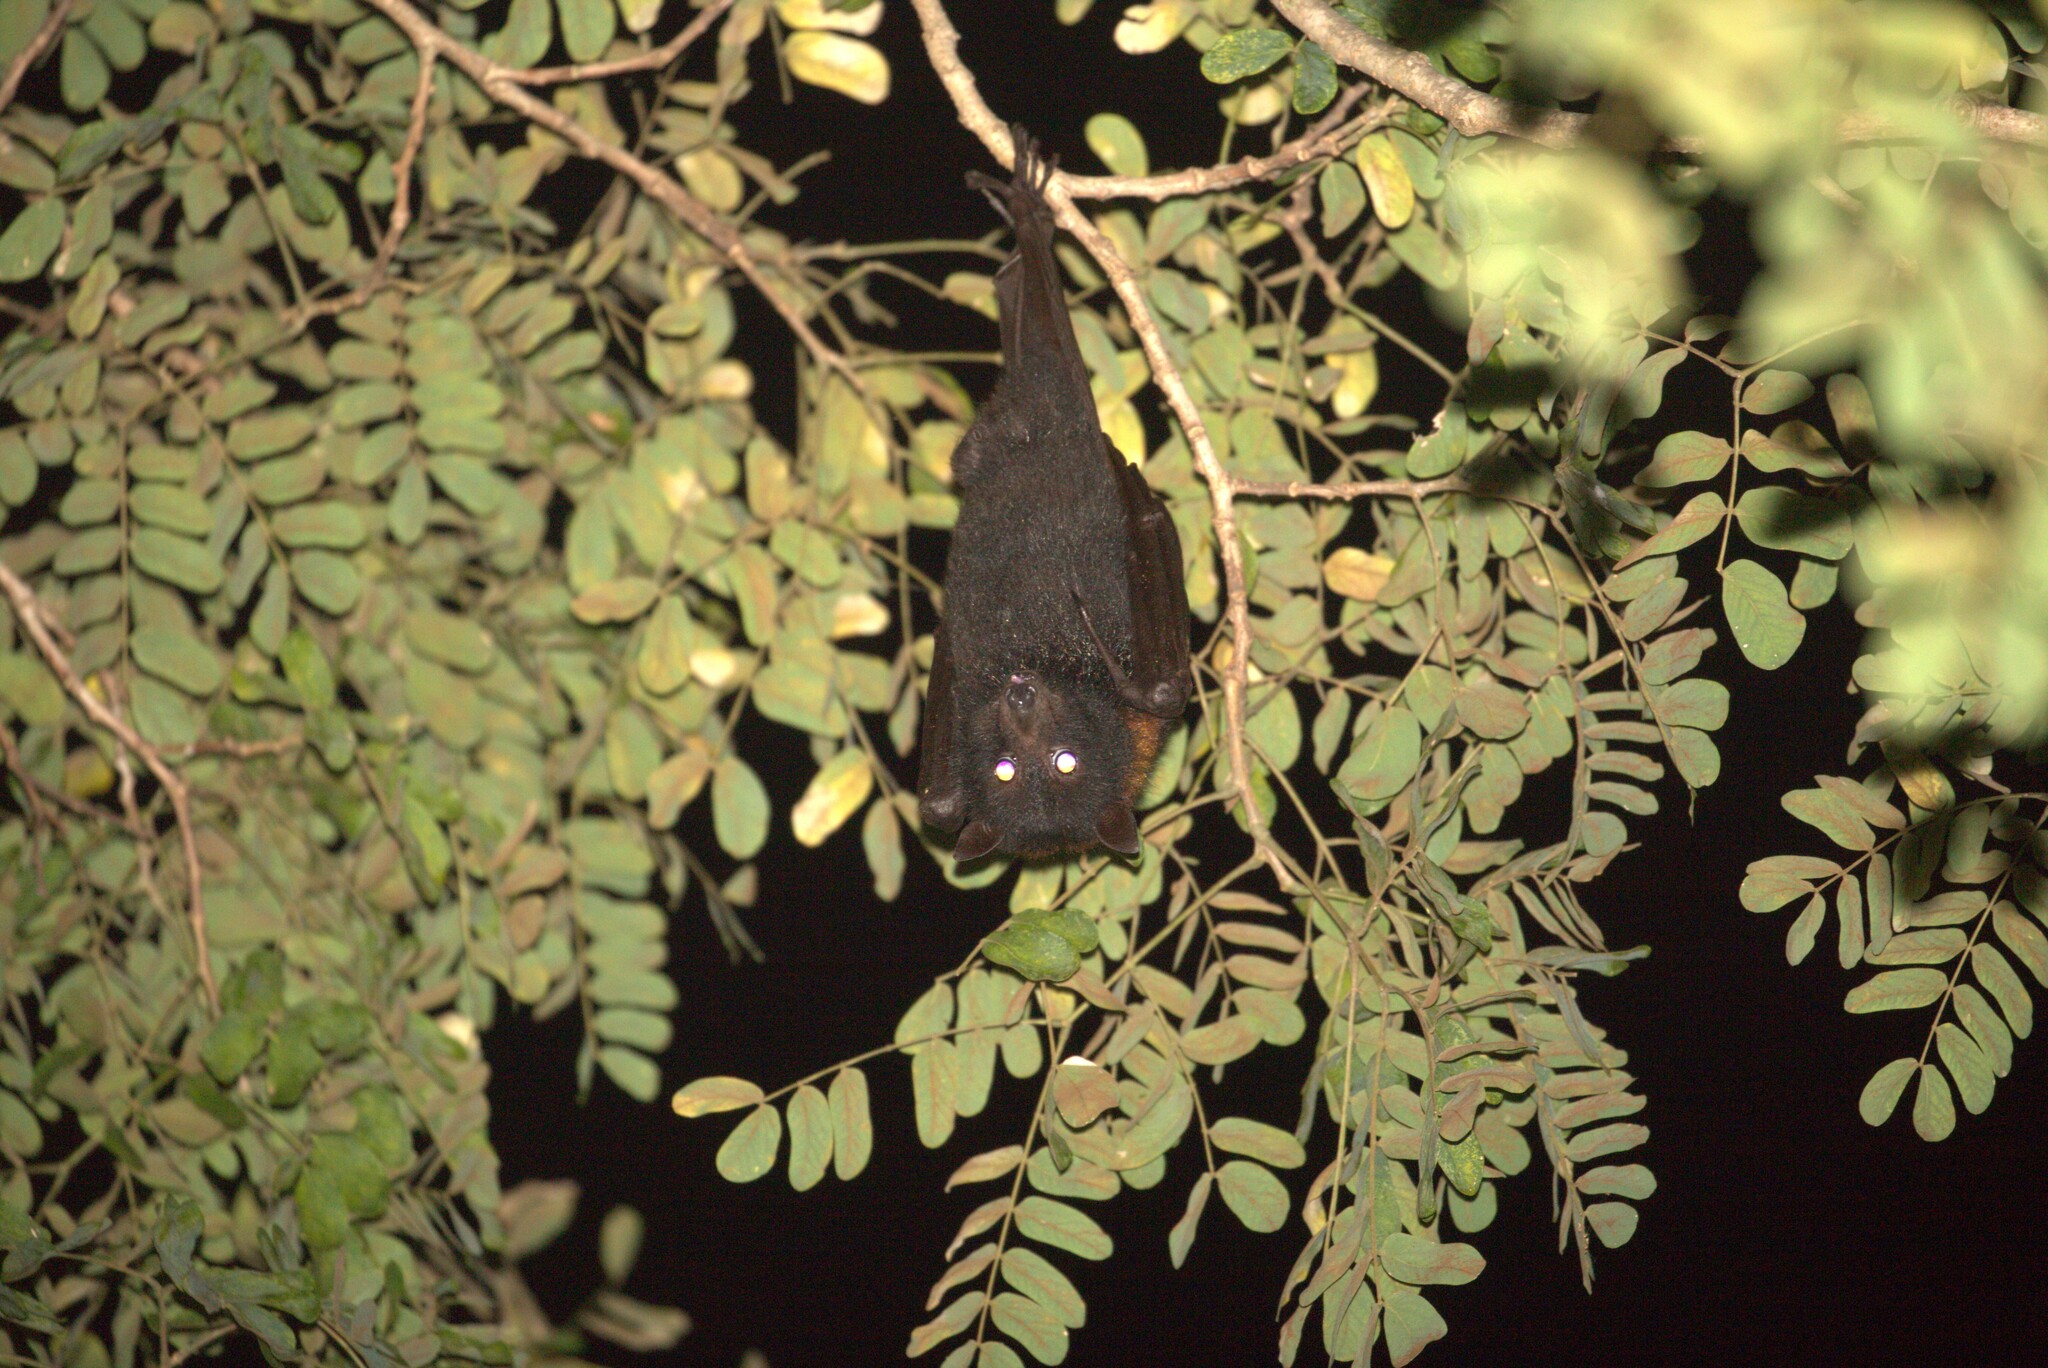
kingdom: Animalia
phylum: Chordata
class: Mammalia
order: Chiroptera
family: Pteropodidae
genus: Pteropus
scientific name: Pteropus alecto
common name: Black flying fox
